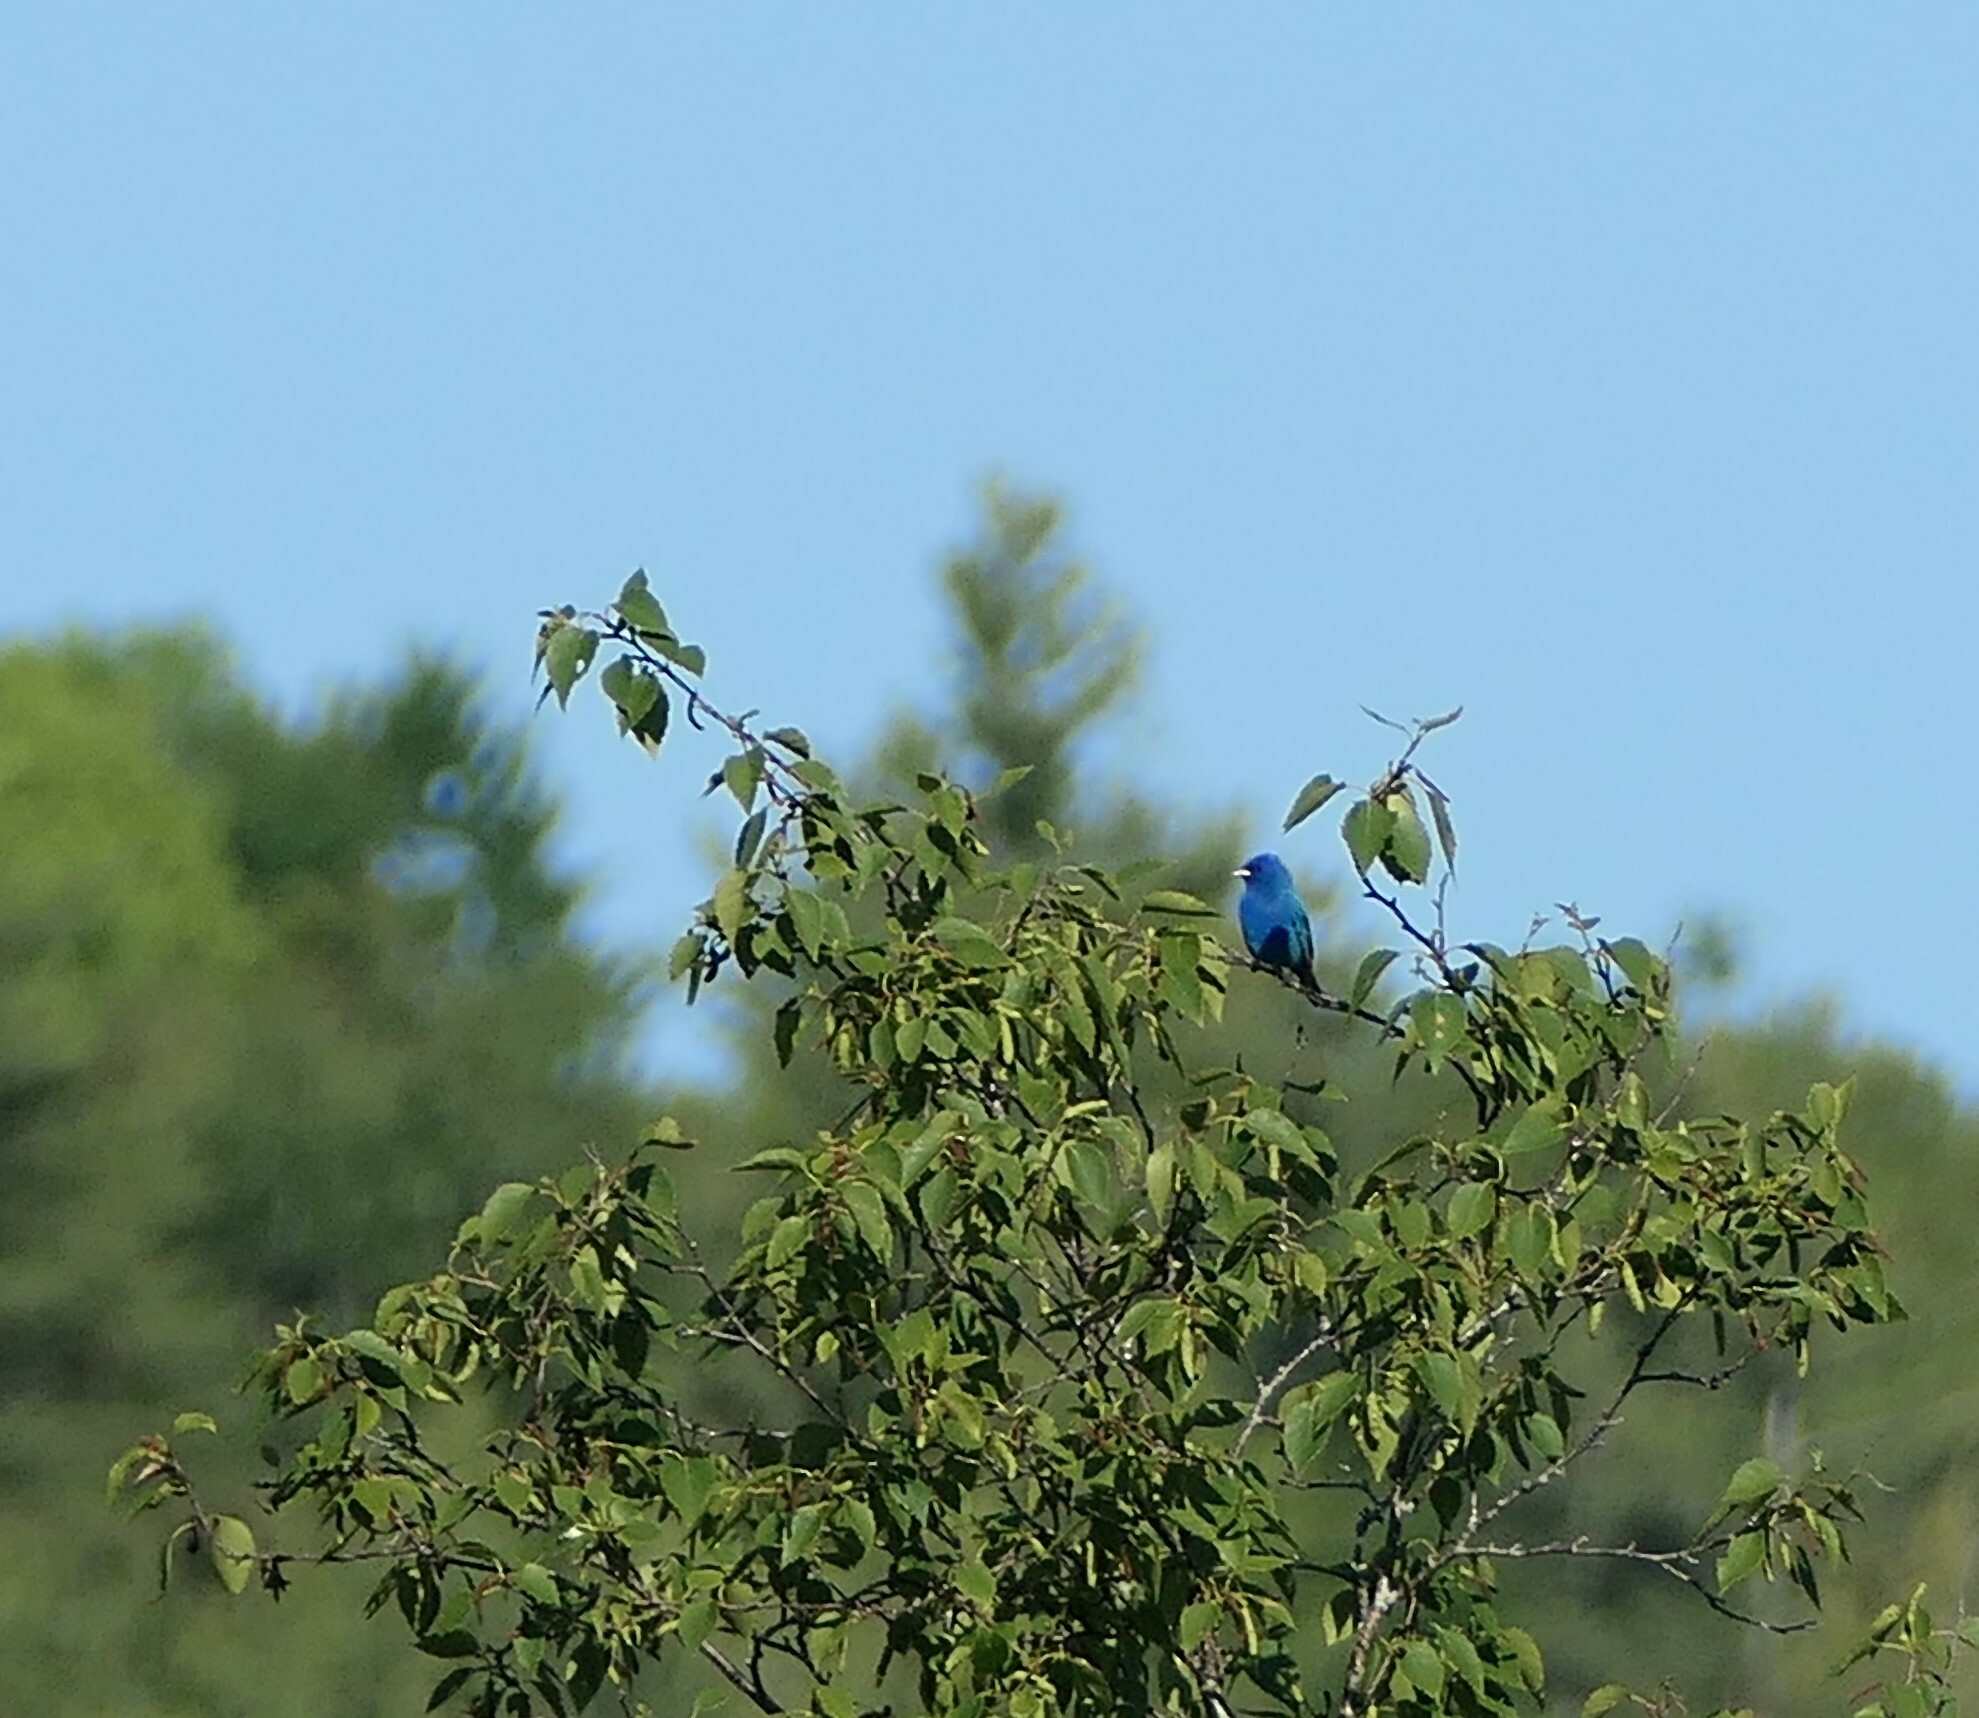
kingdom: Animalia
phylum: Chordata
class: Aves
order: Passeriformes
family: Cardinalidae
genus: Passerina
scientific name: Passerina cyanea
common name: Indigo bunting
